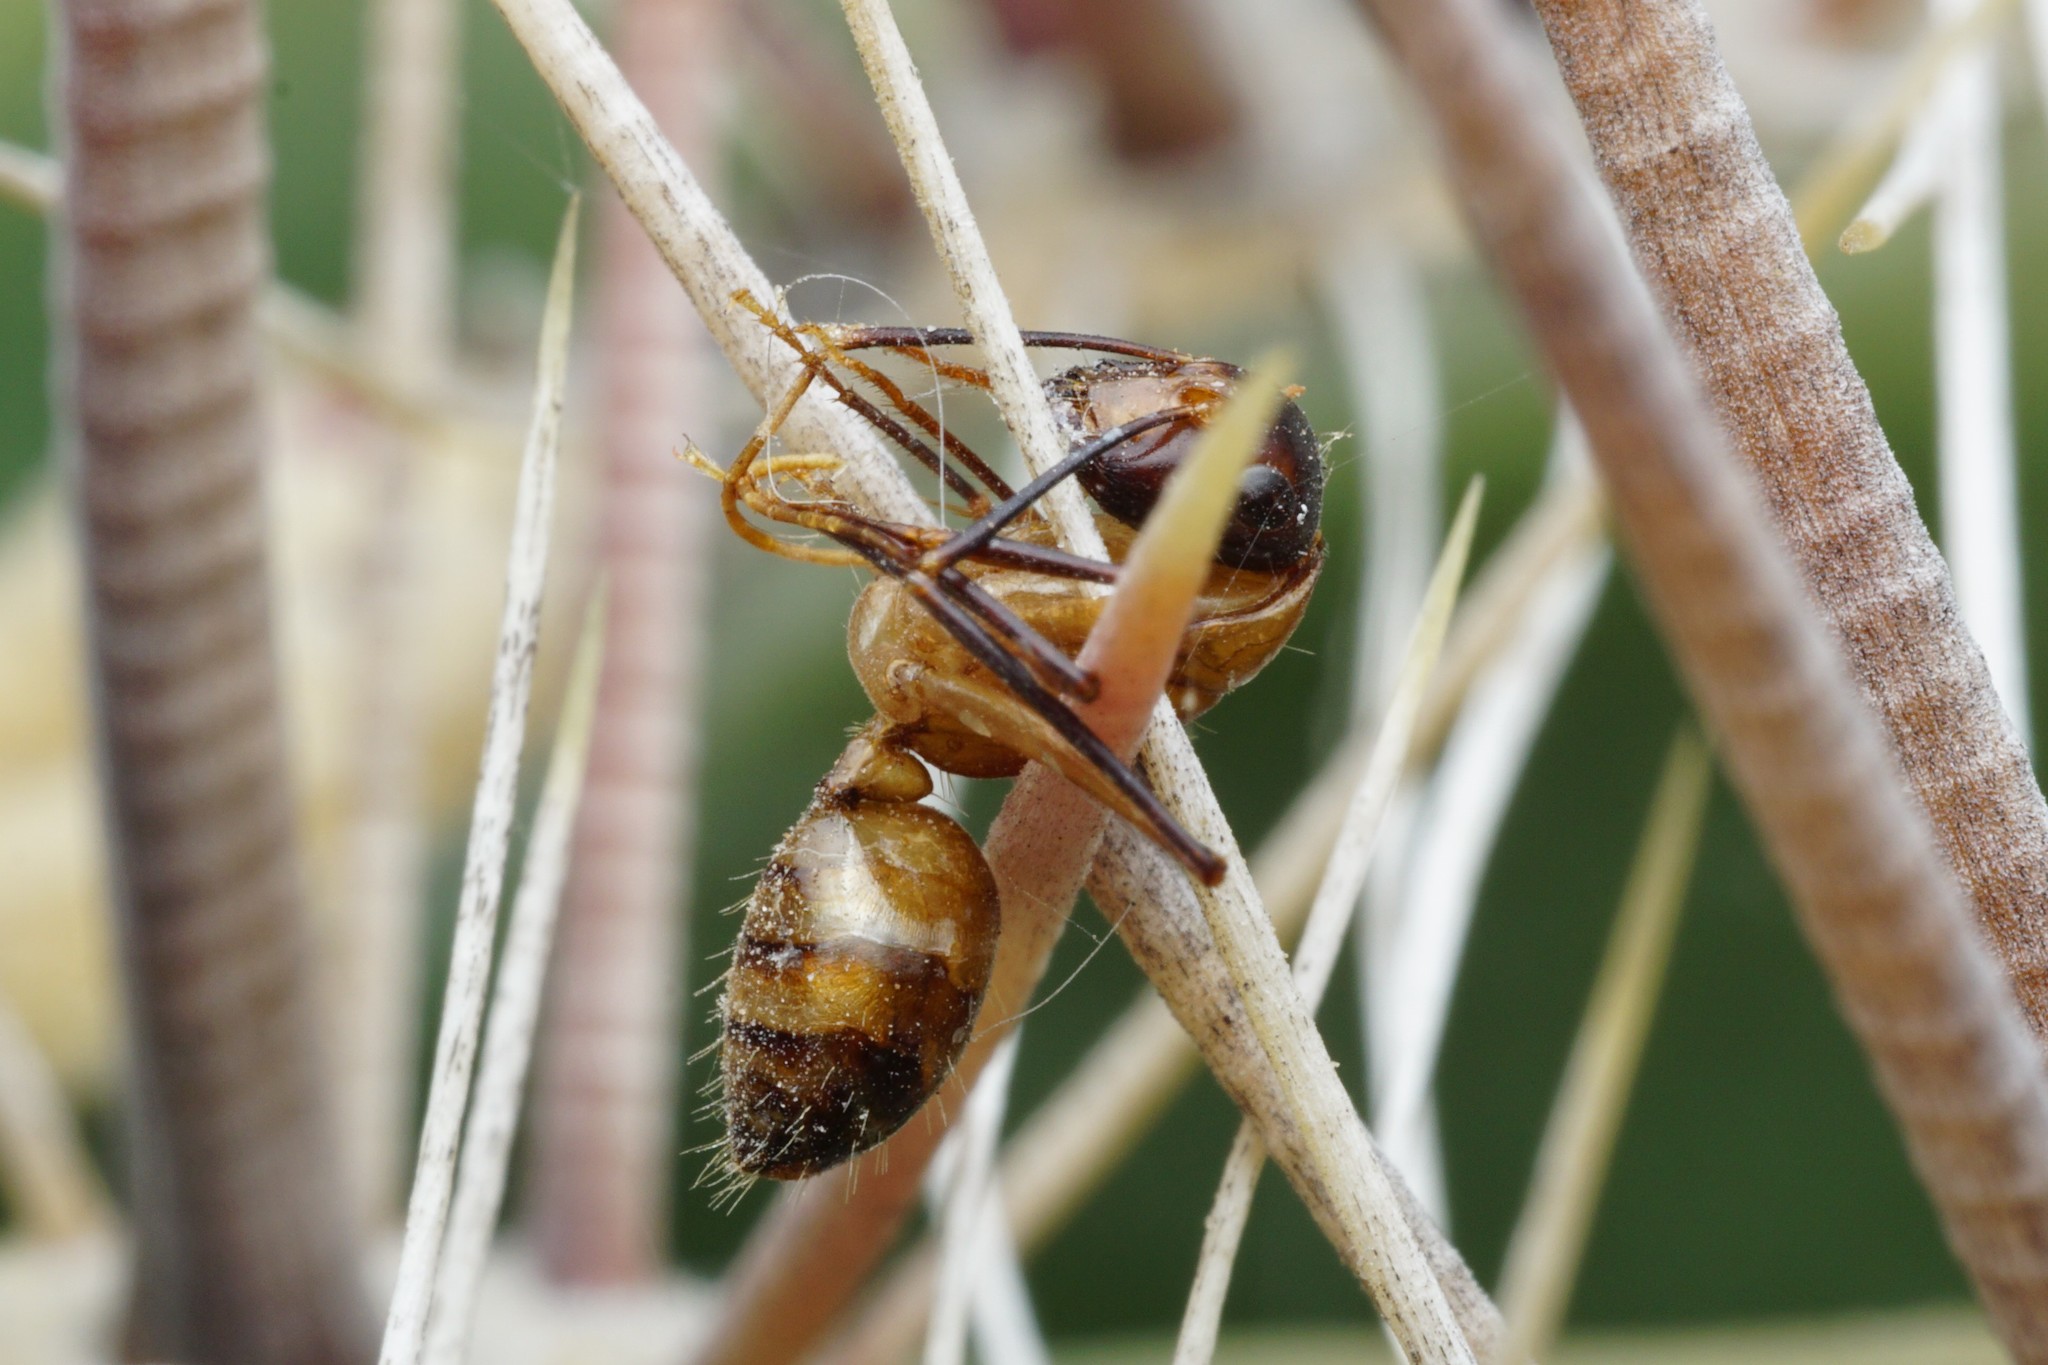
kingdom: Animalia
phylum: Arthropoda
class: Insecta
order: Hymenoptera
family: Formicidae
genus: Camponotus
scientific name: Camponotus ocreatus
